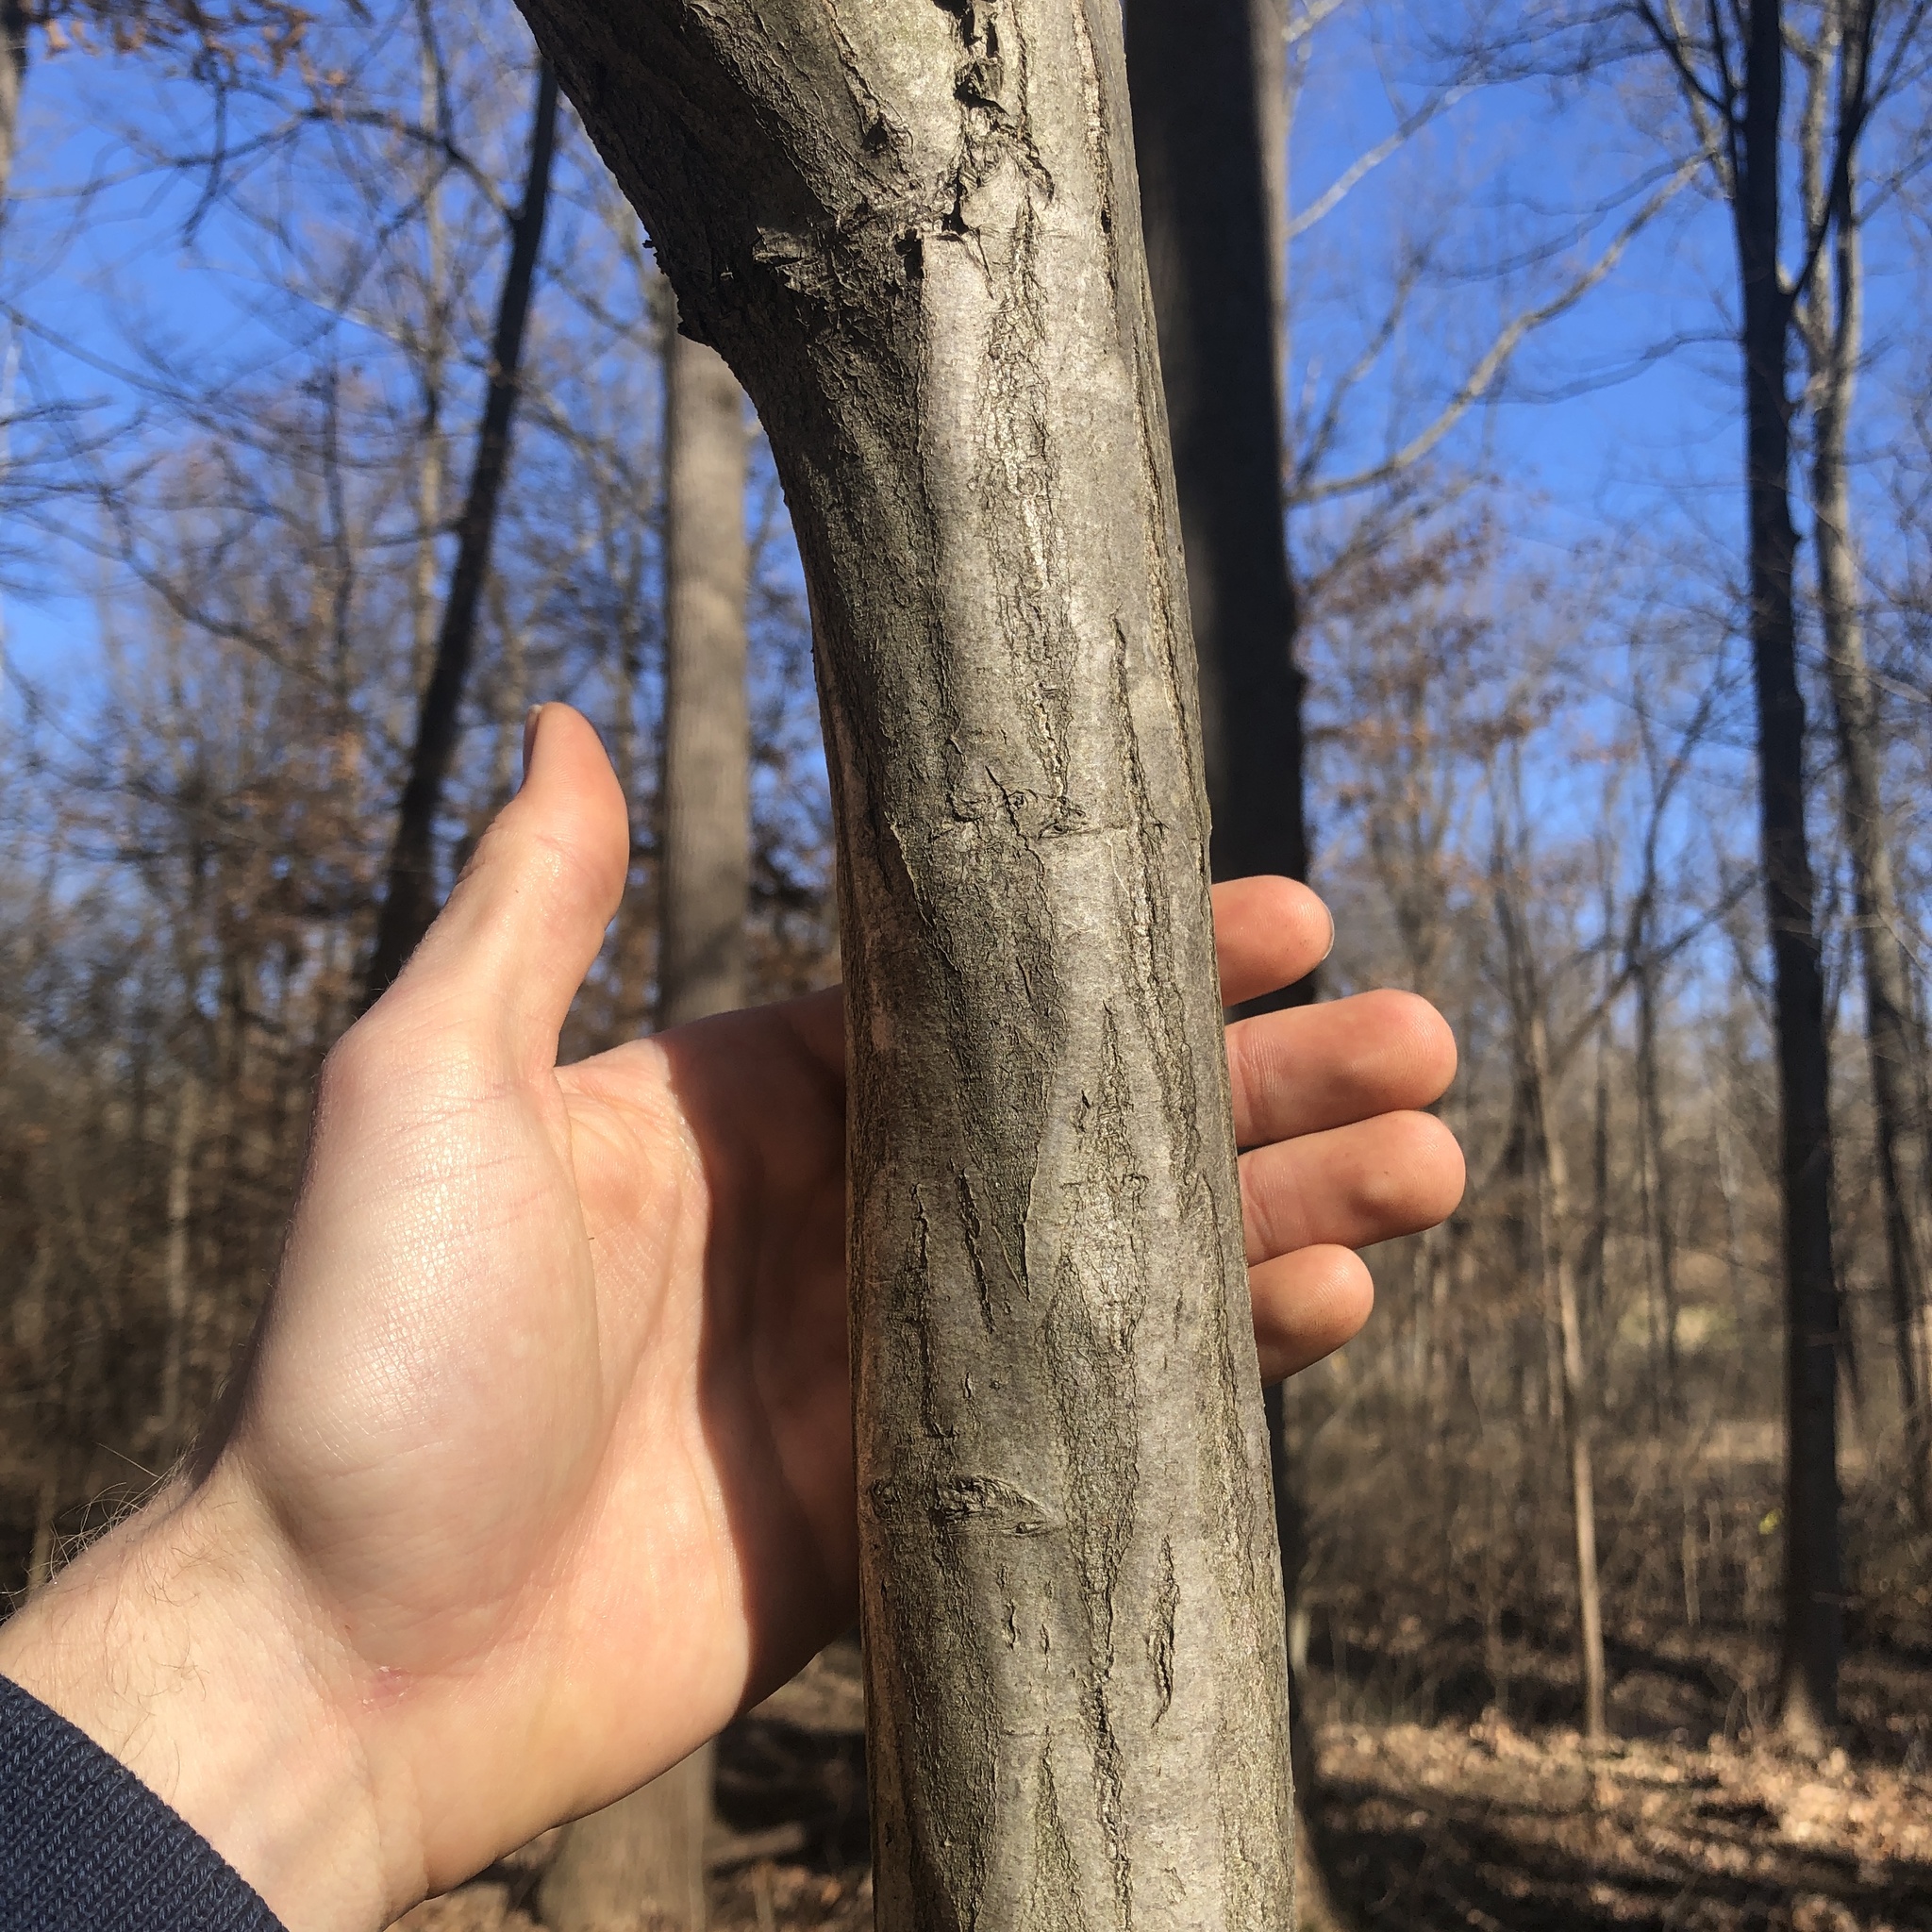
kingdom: Plantae
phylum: Tracheophyta
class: Magnoliopsida
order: Fagales
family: Betulaceae
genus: Carpinus
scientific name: Carpinus caroliniana
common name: American hornbeam
